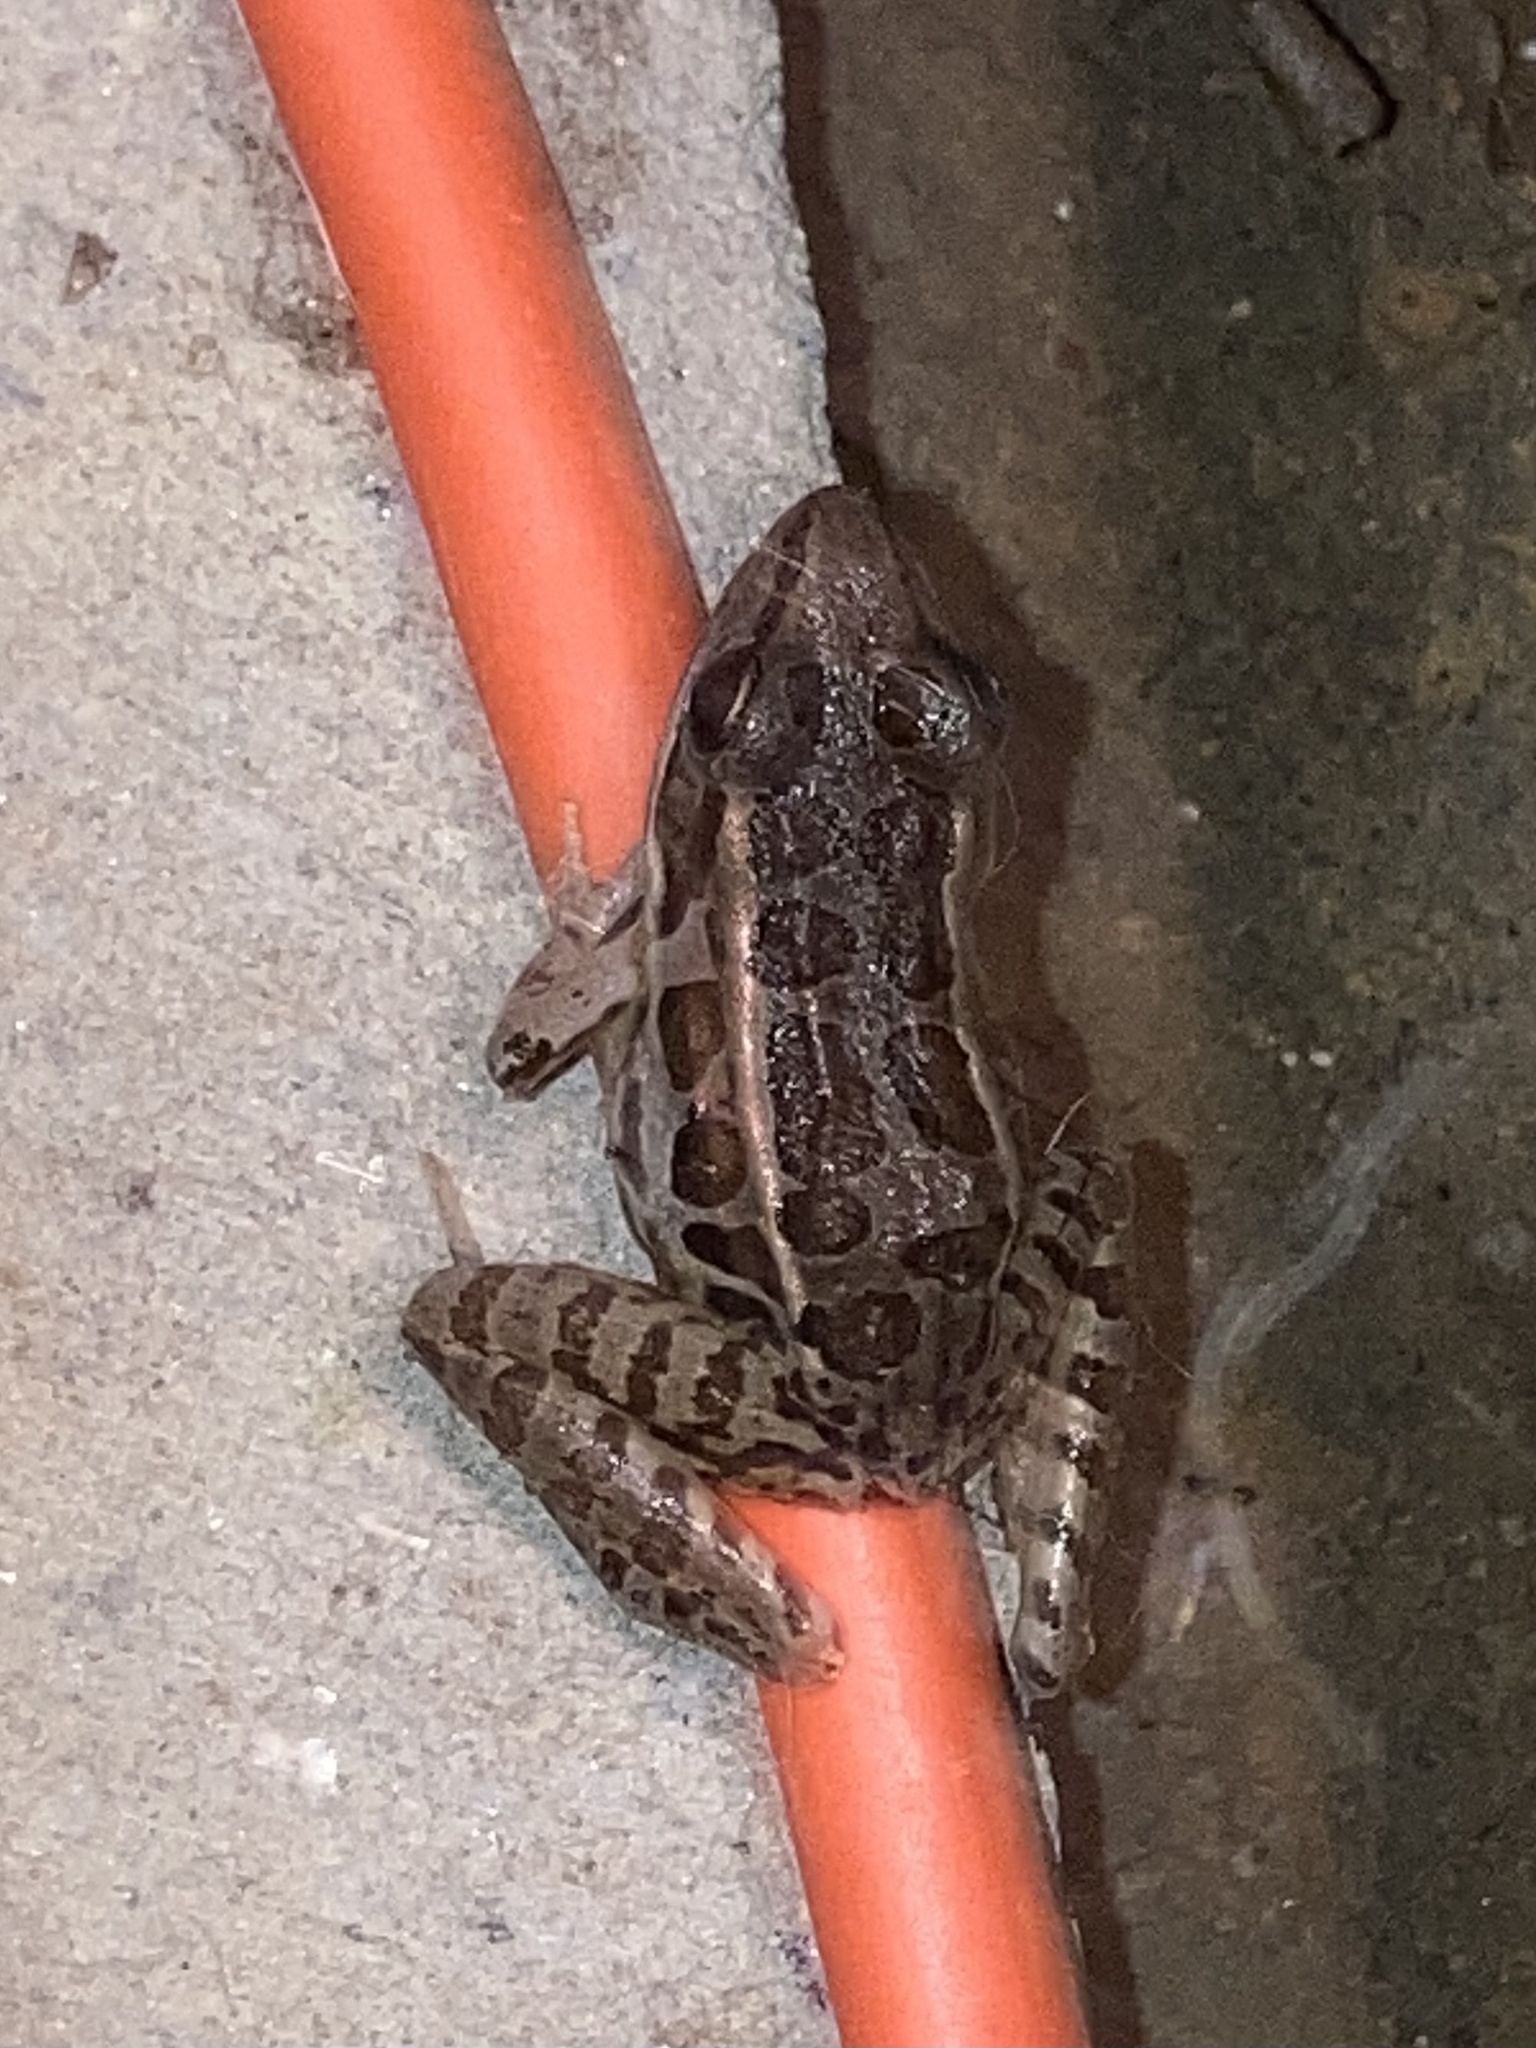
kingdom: Animalia
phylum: Chordata
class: Amphibia
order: Anura
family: Ranidae
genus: Lithobates
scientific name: Lithobates palustris
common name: Pickerel frog
